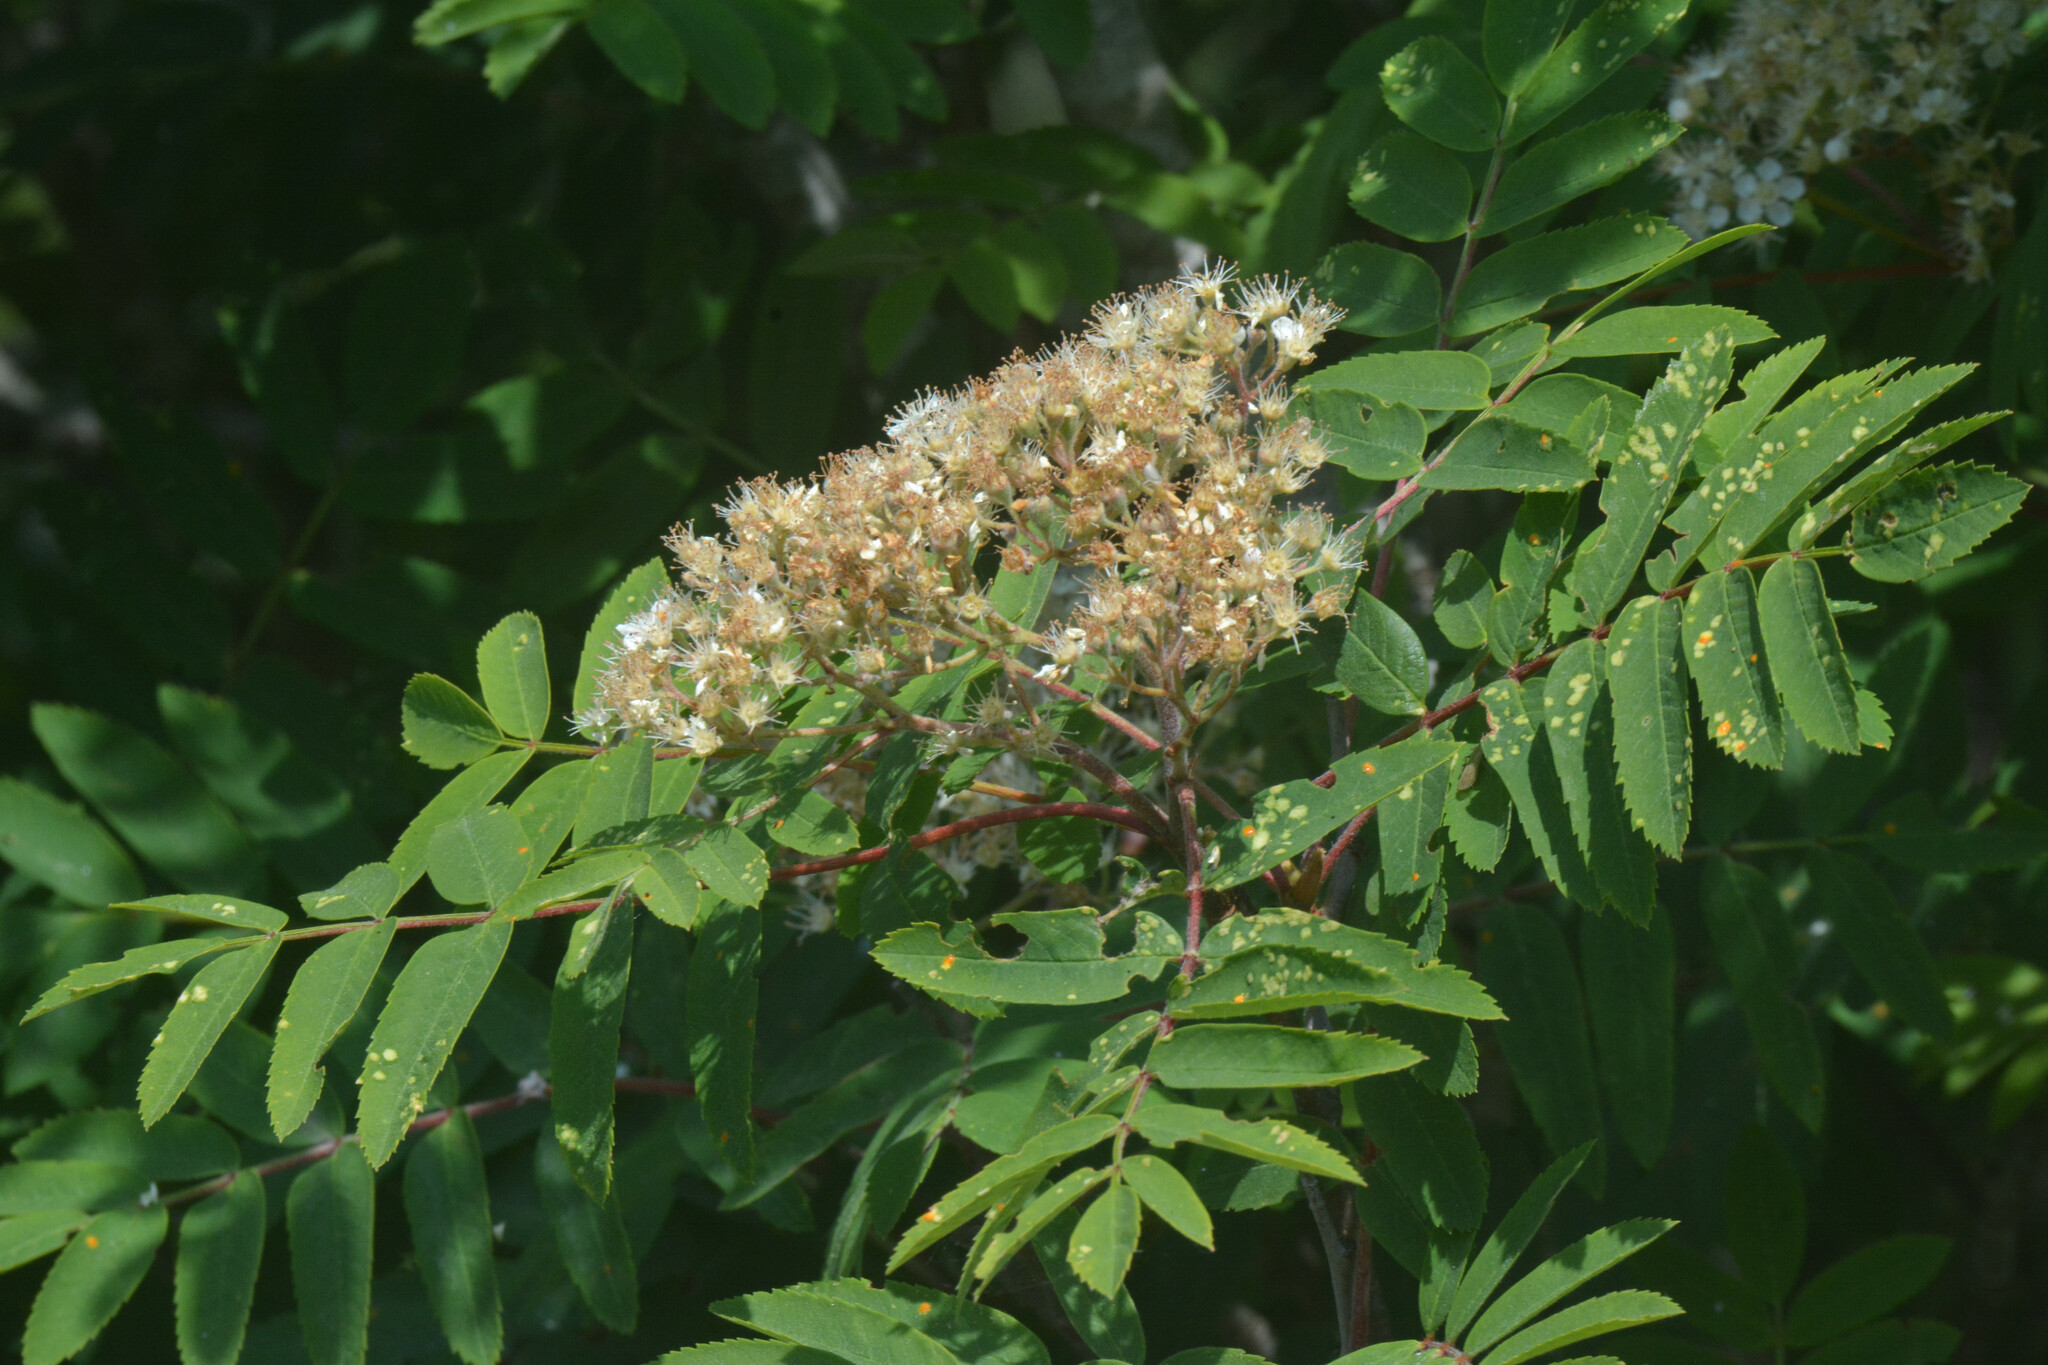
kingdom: Plantae
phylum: Tracheophyta
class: Magnoliopsida
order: Rosales
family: Rosaceae
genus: Sorbus
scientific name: Sorbus aucuparia
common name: Rowan
